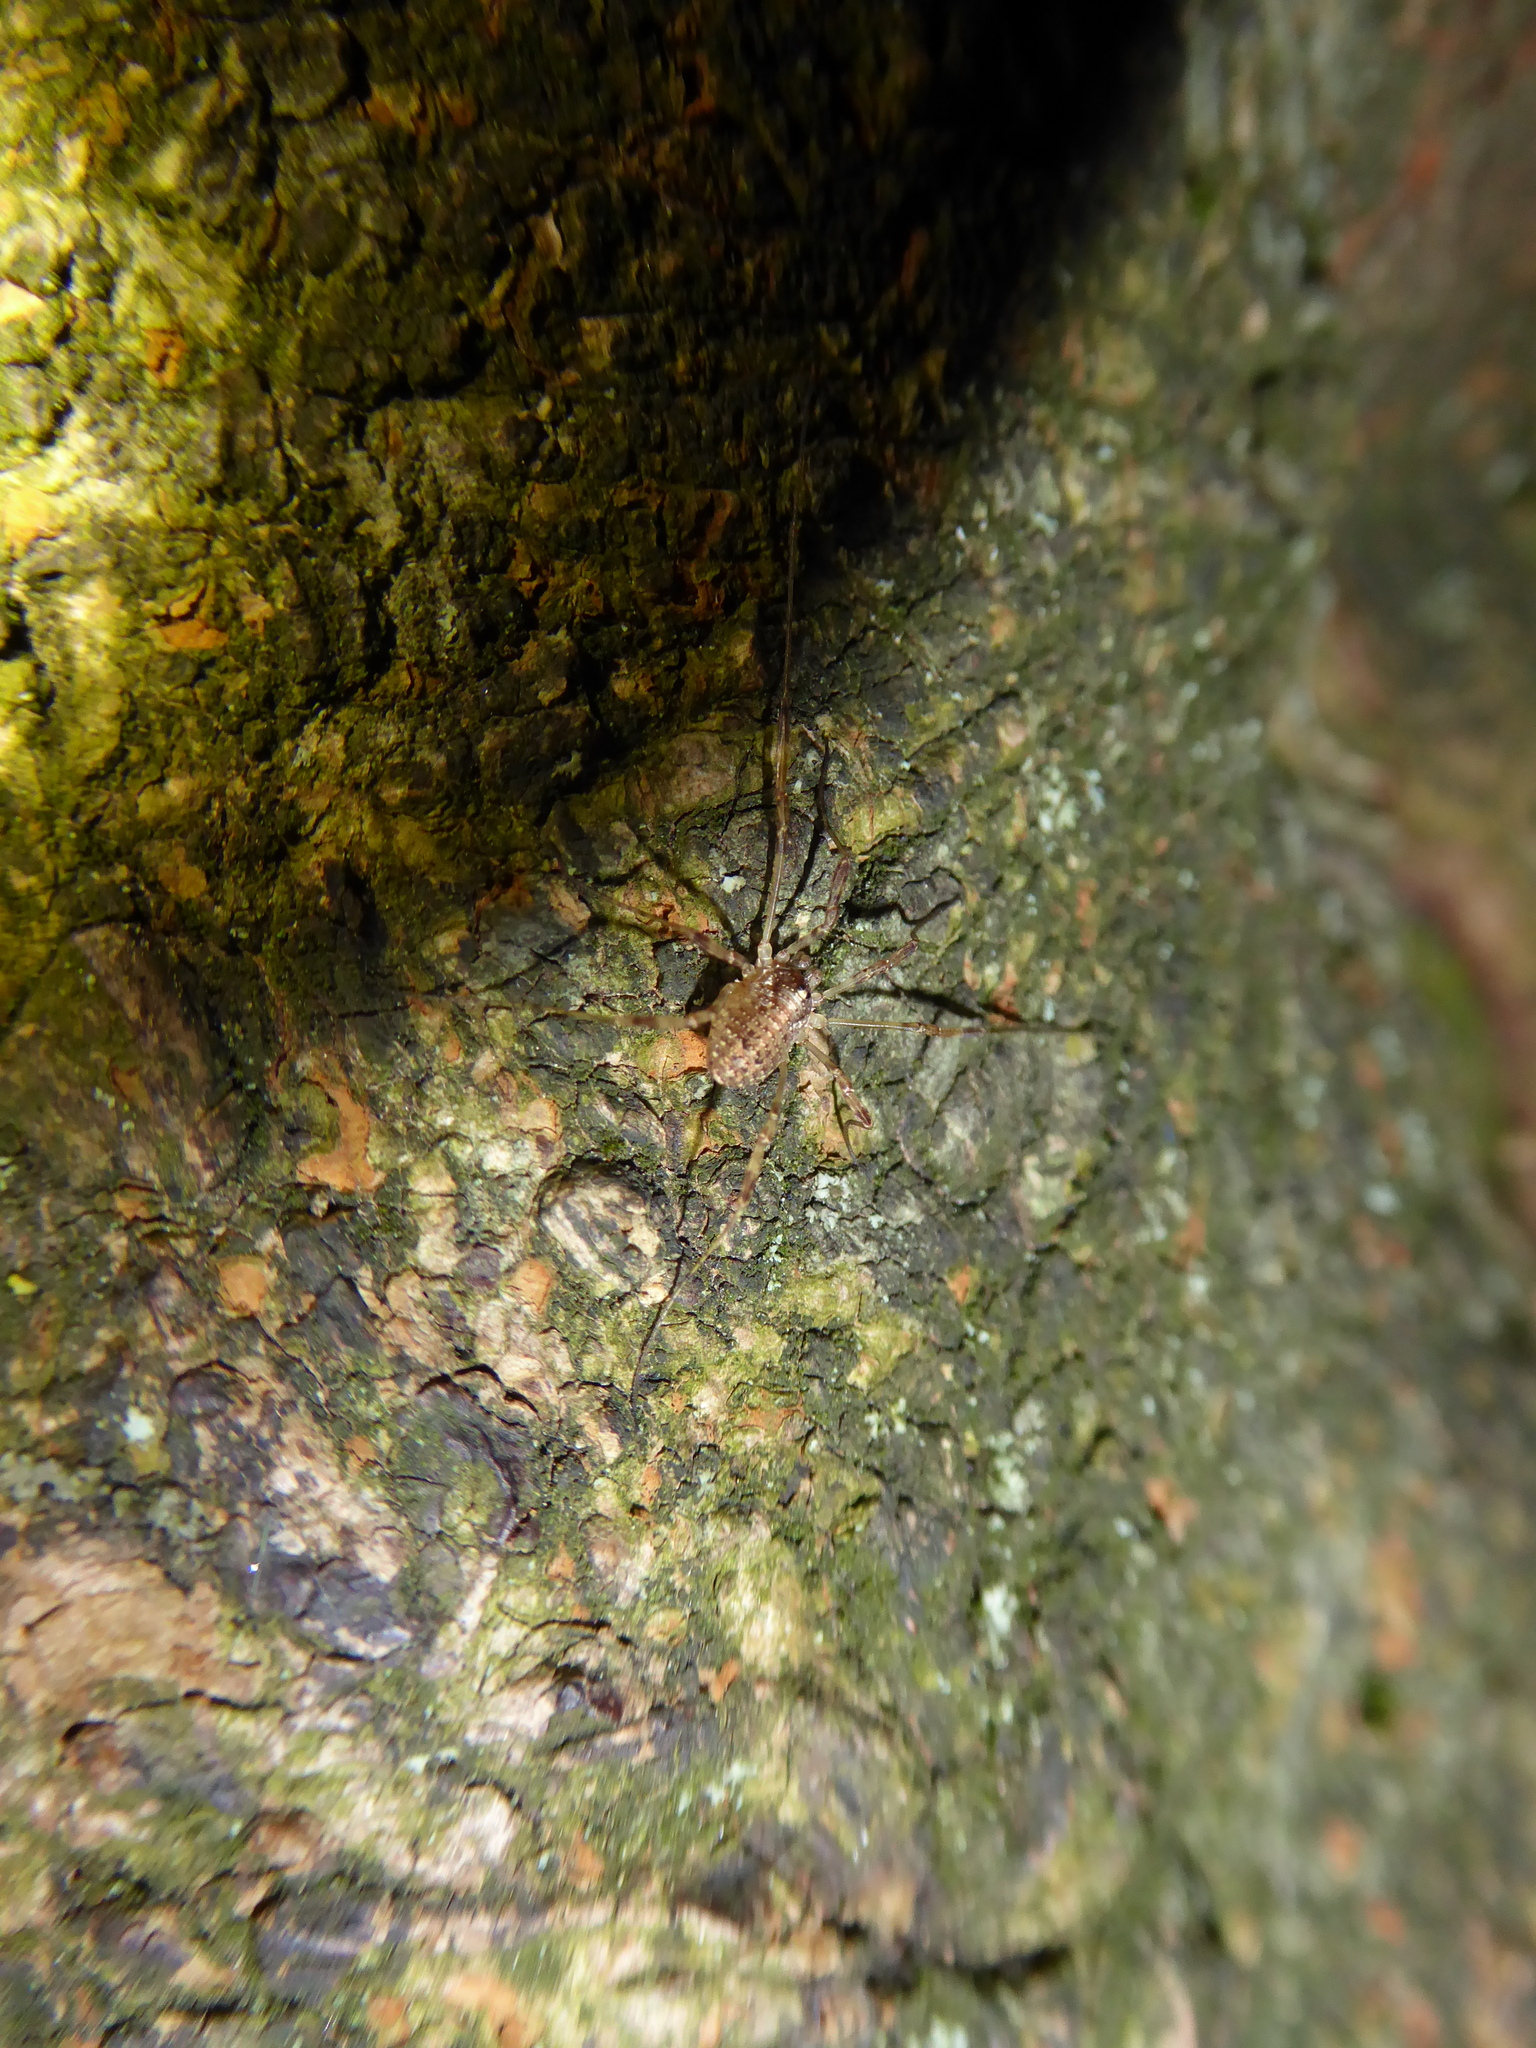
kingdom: Animalia
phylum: Arthropoda
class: Arachnida
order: Opiliones
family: Phalangiidae
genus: Paroligolophus
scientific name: Paroligolophus agrestis
